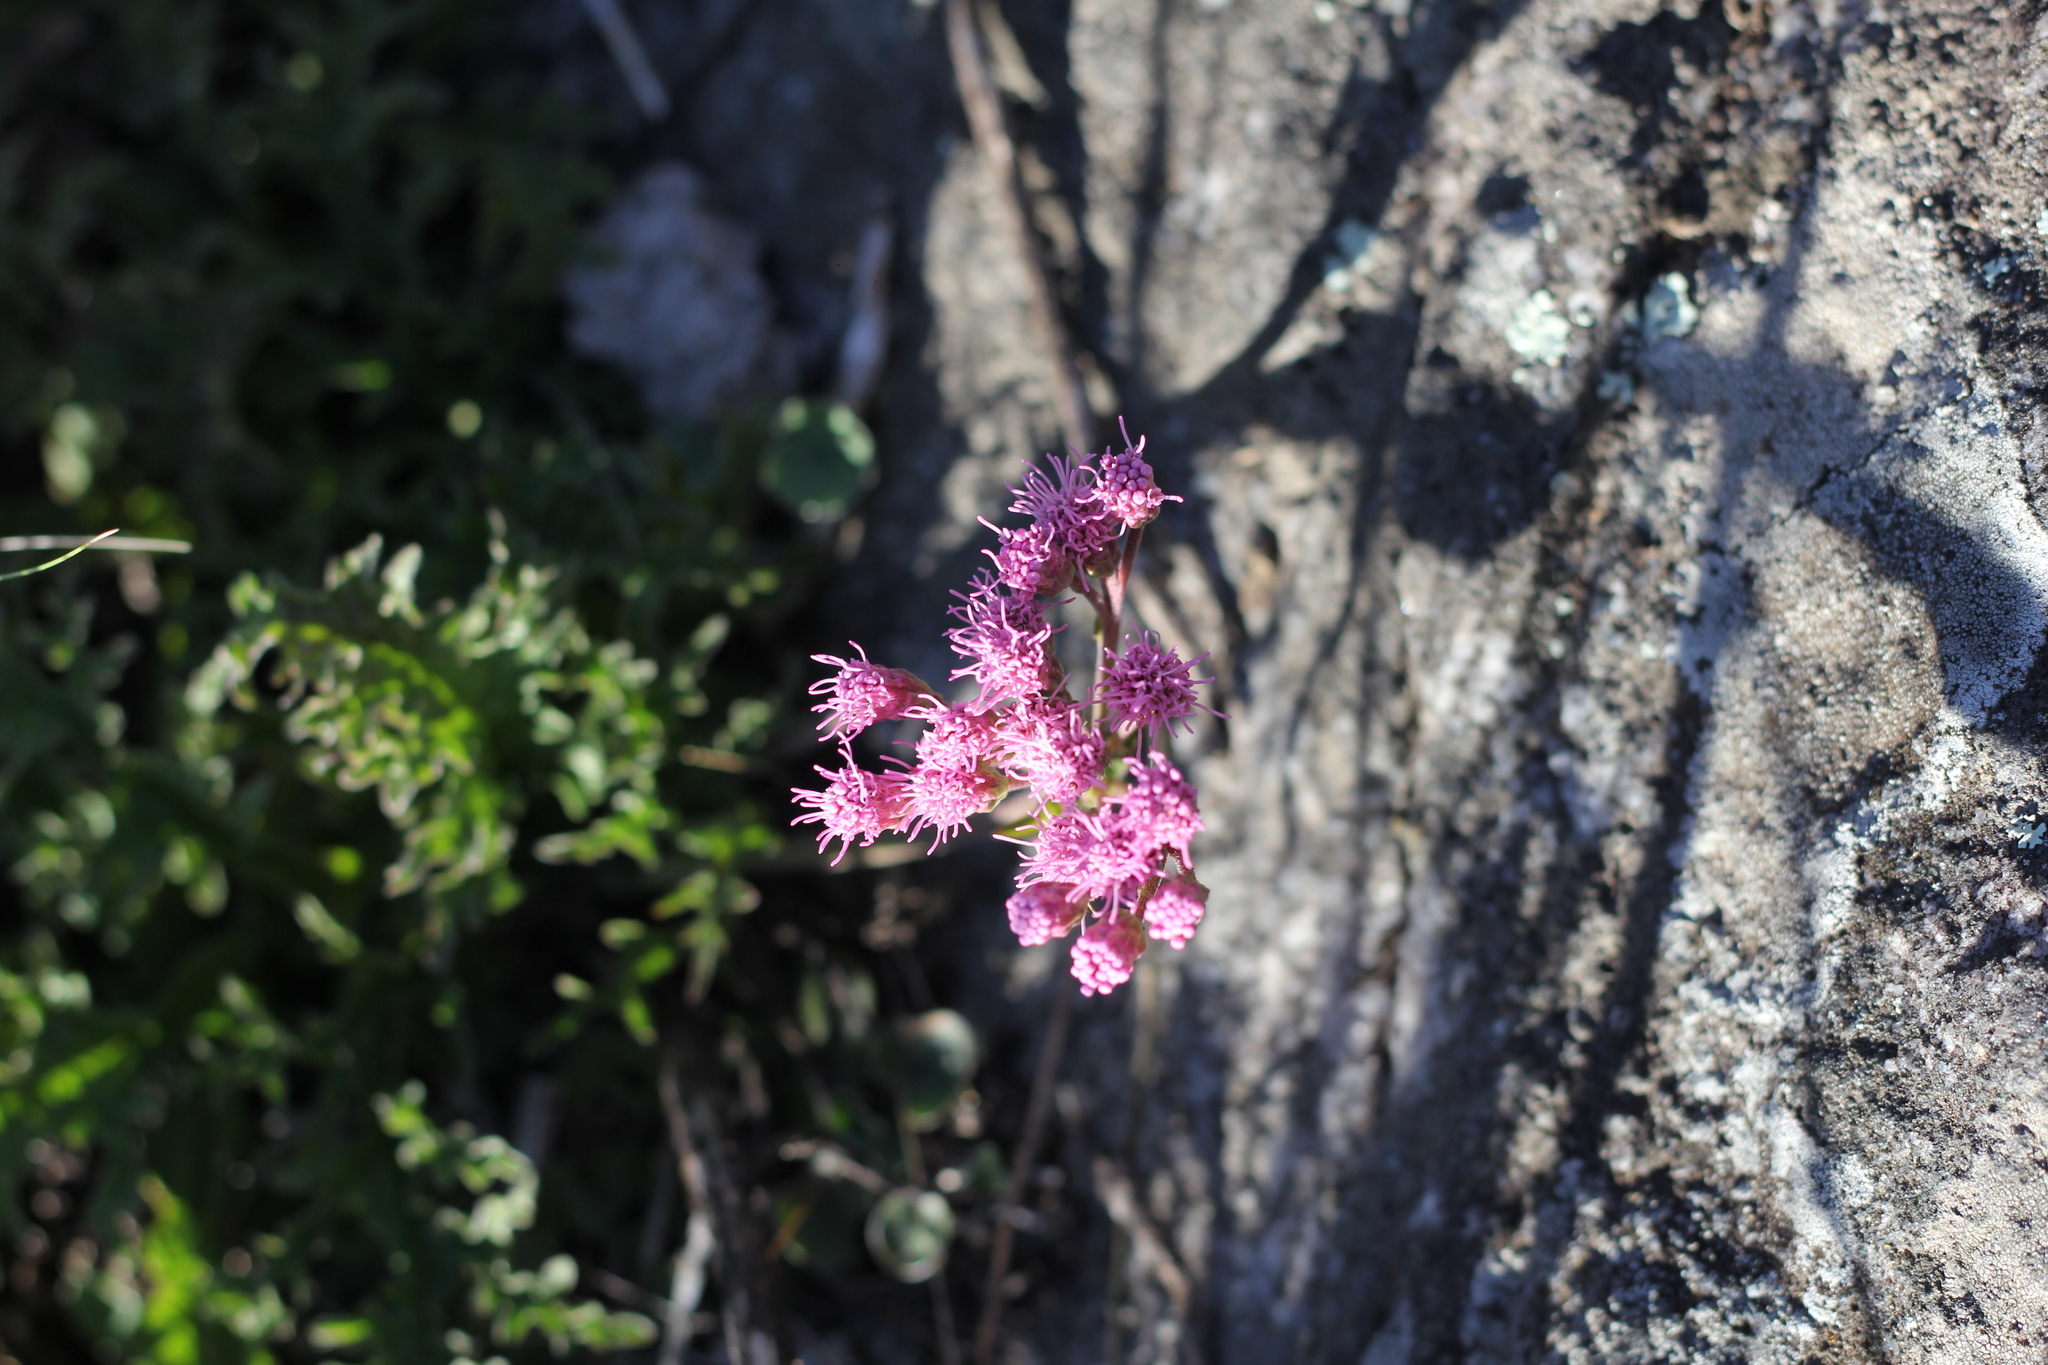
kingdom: Plantae
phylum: Tracheophyta
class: Magnoliopsida
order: Asterales
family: Asteraceae
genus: Gyptis
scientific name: Gyptis tanacetifolia
